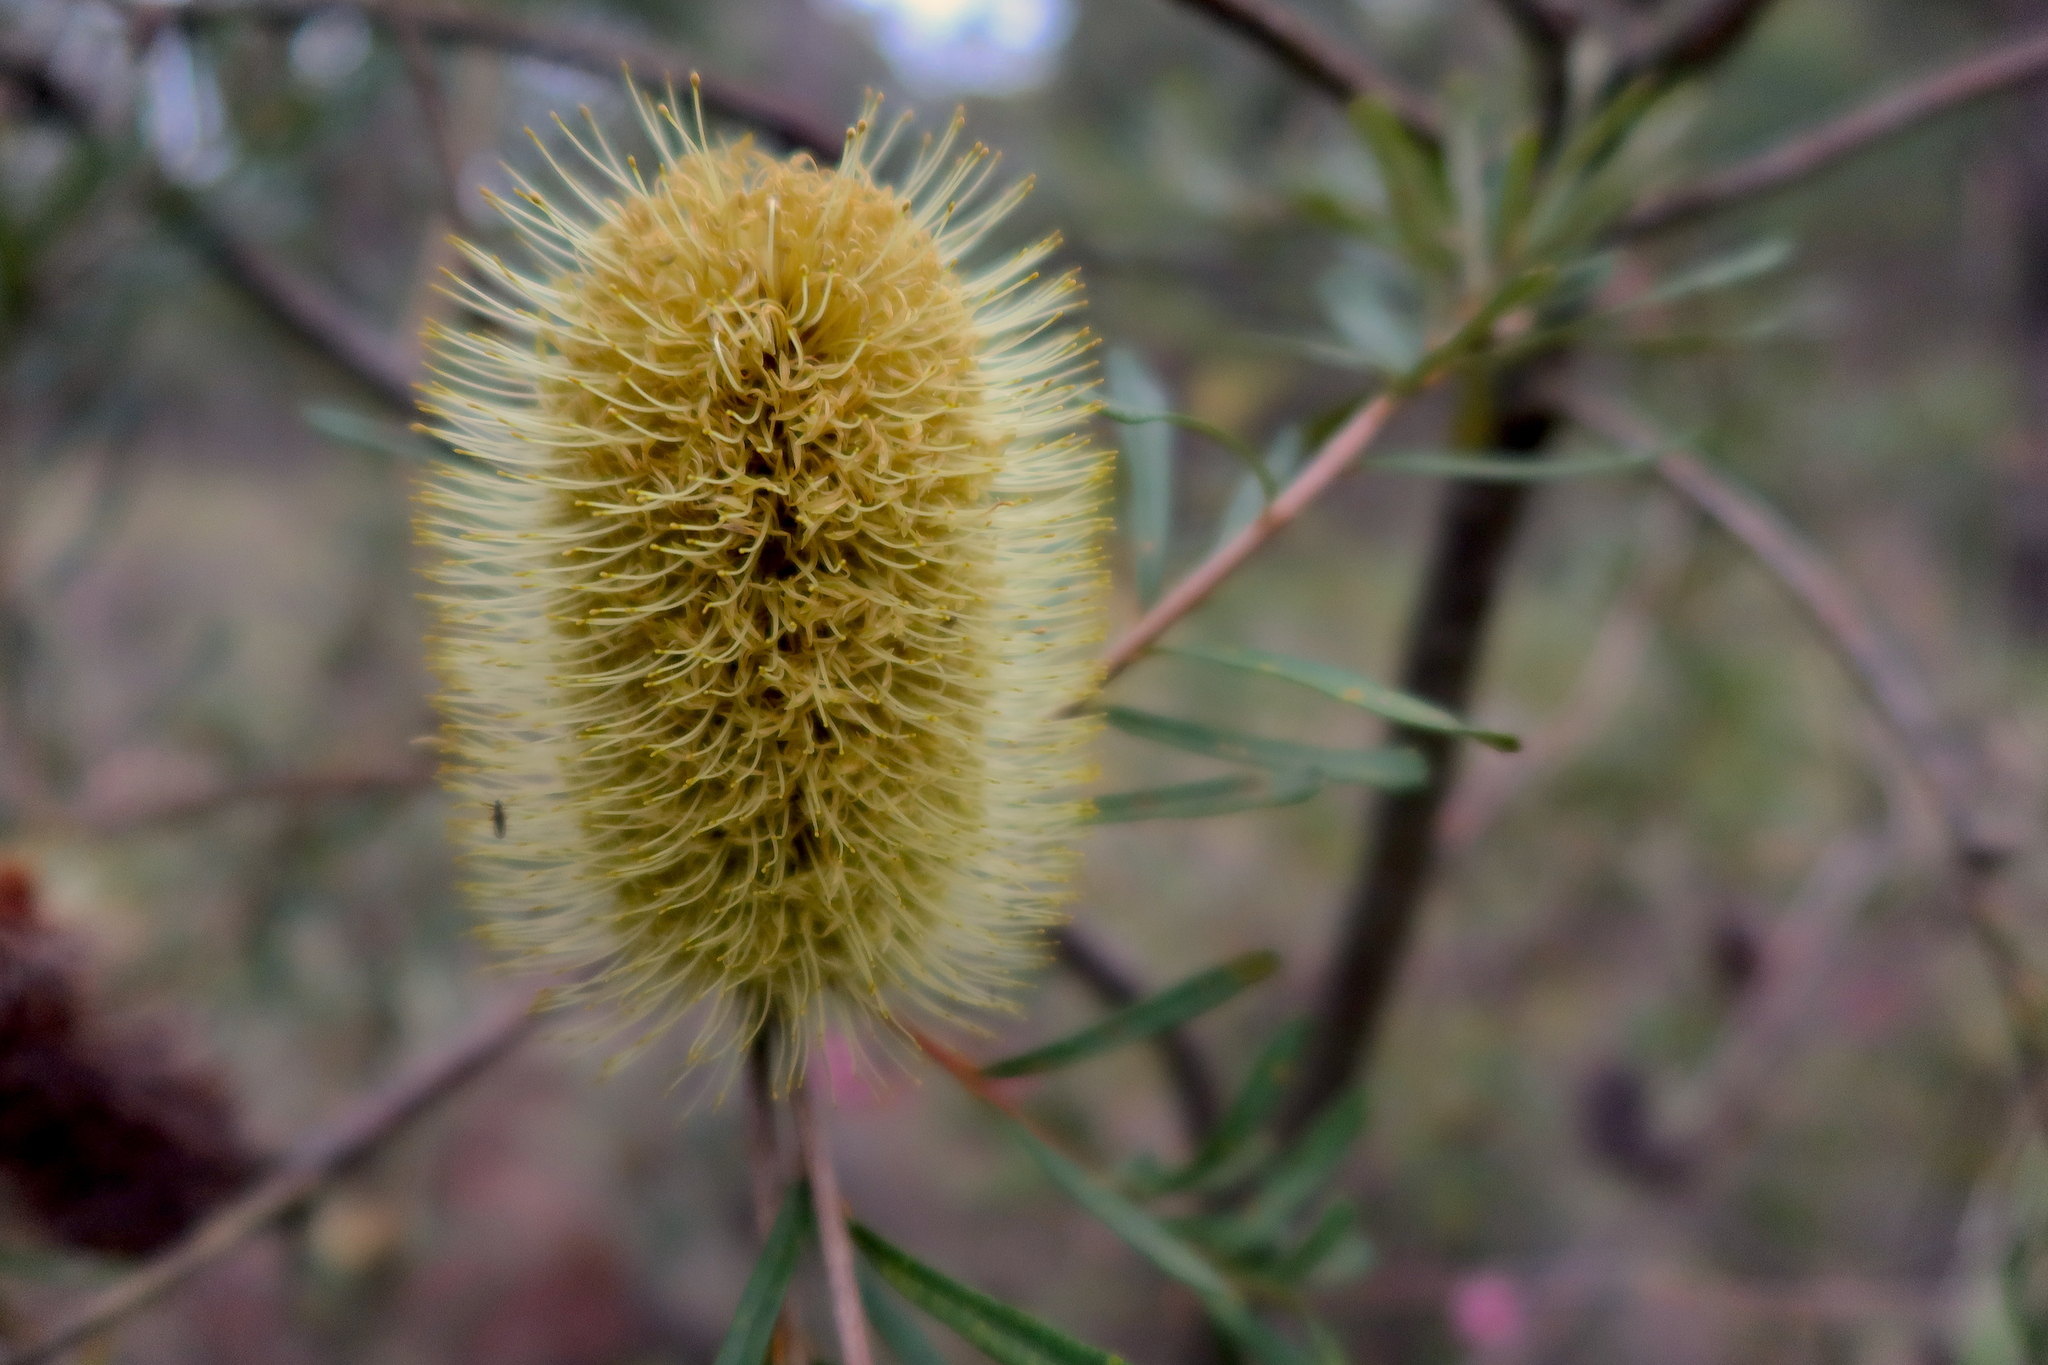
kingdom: Plantae
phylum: Tracheophyta
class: Magnoliopsida
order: Proteales
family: Proteaceae
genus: Banksia
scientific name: Banksia marginata
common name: Silver banksia
